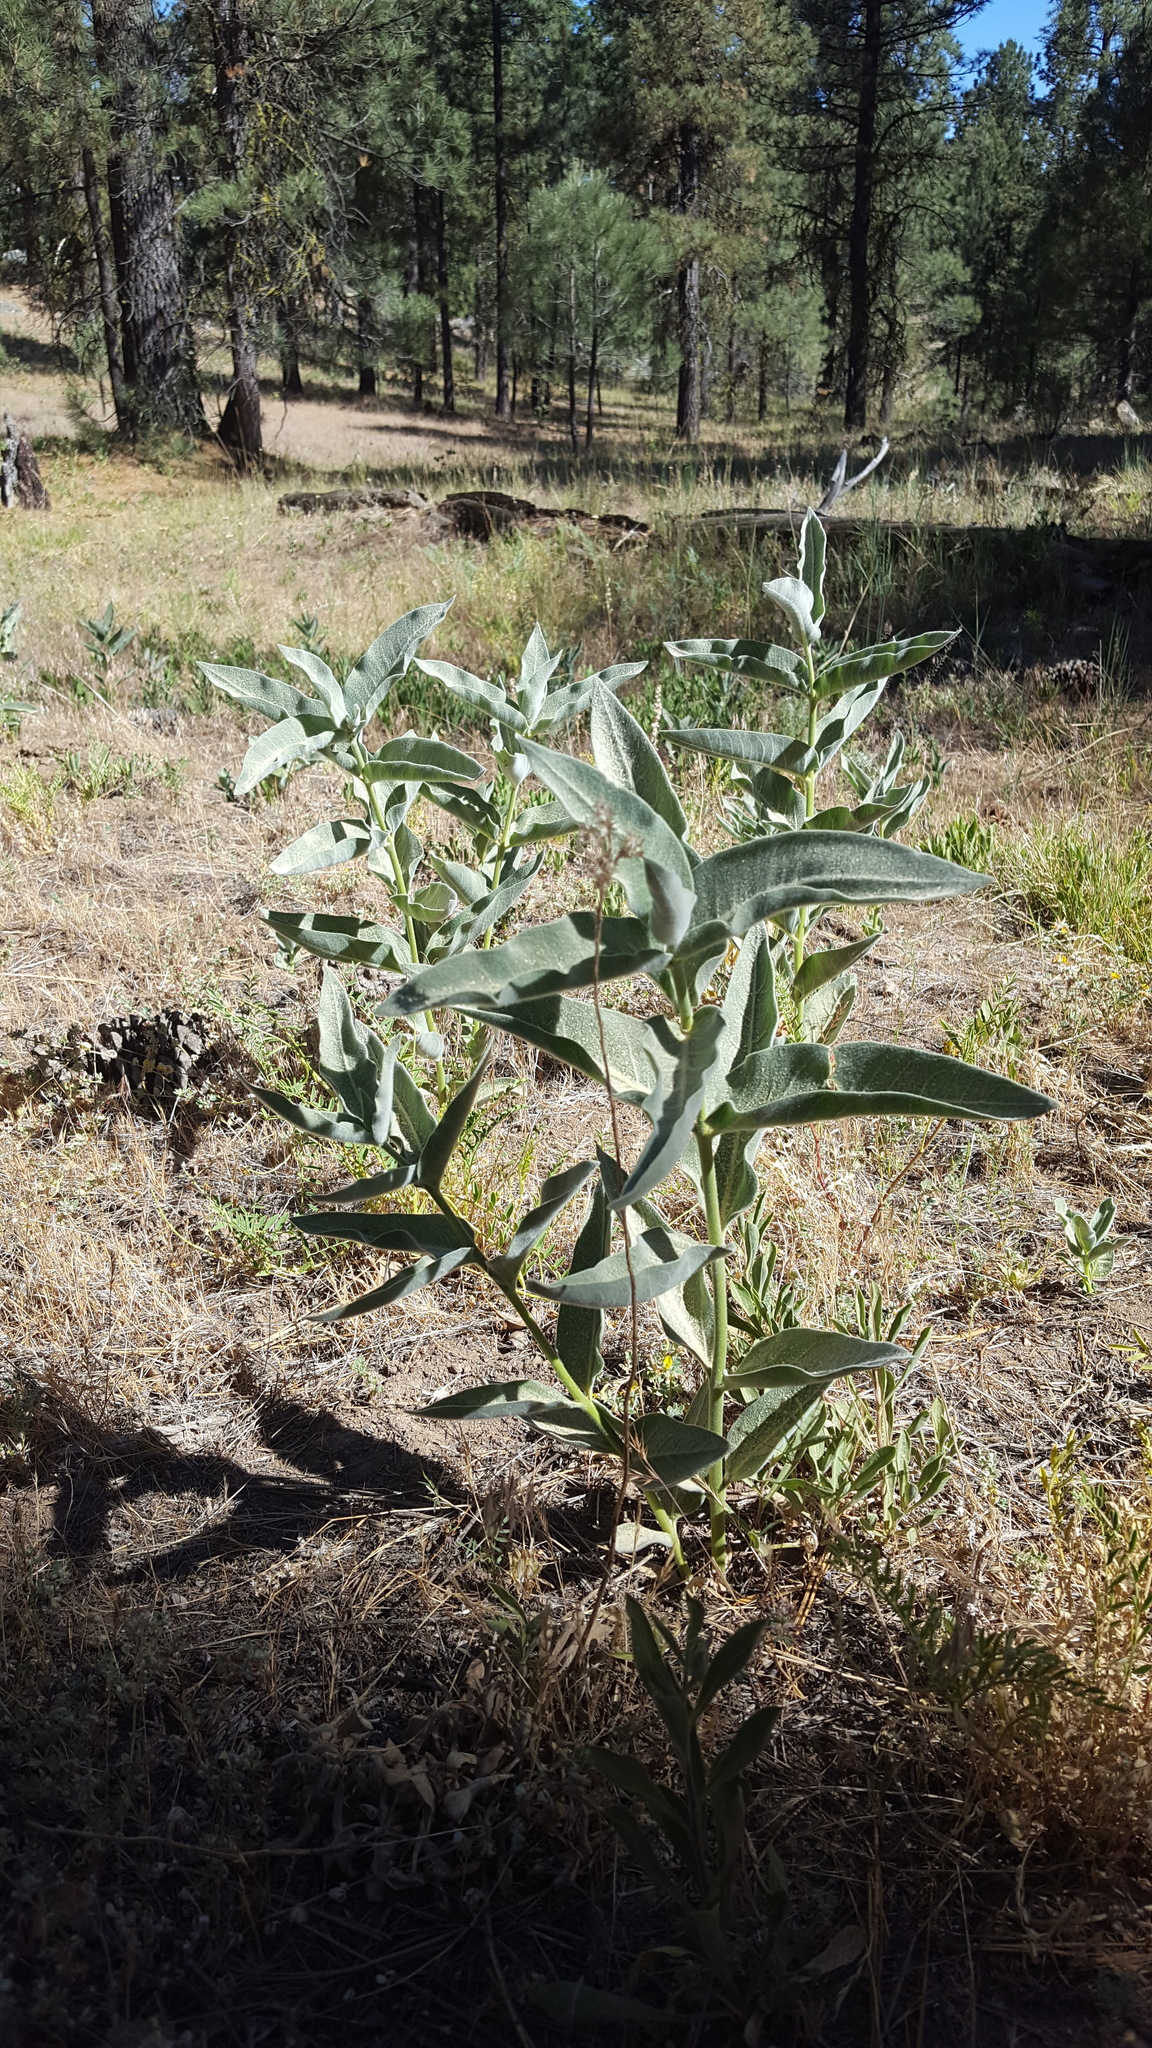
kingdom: Plantae
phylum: Tracheophyta
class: Magnoliopsida
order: Gentianales
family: Apocynaceae
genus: Asclepias
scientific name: Asclepias eriocarpa
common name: Indian milkweed
